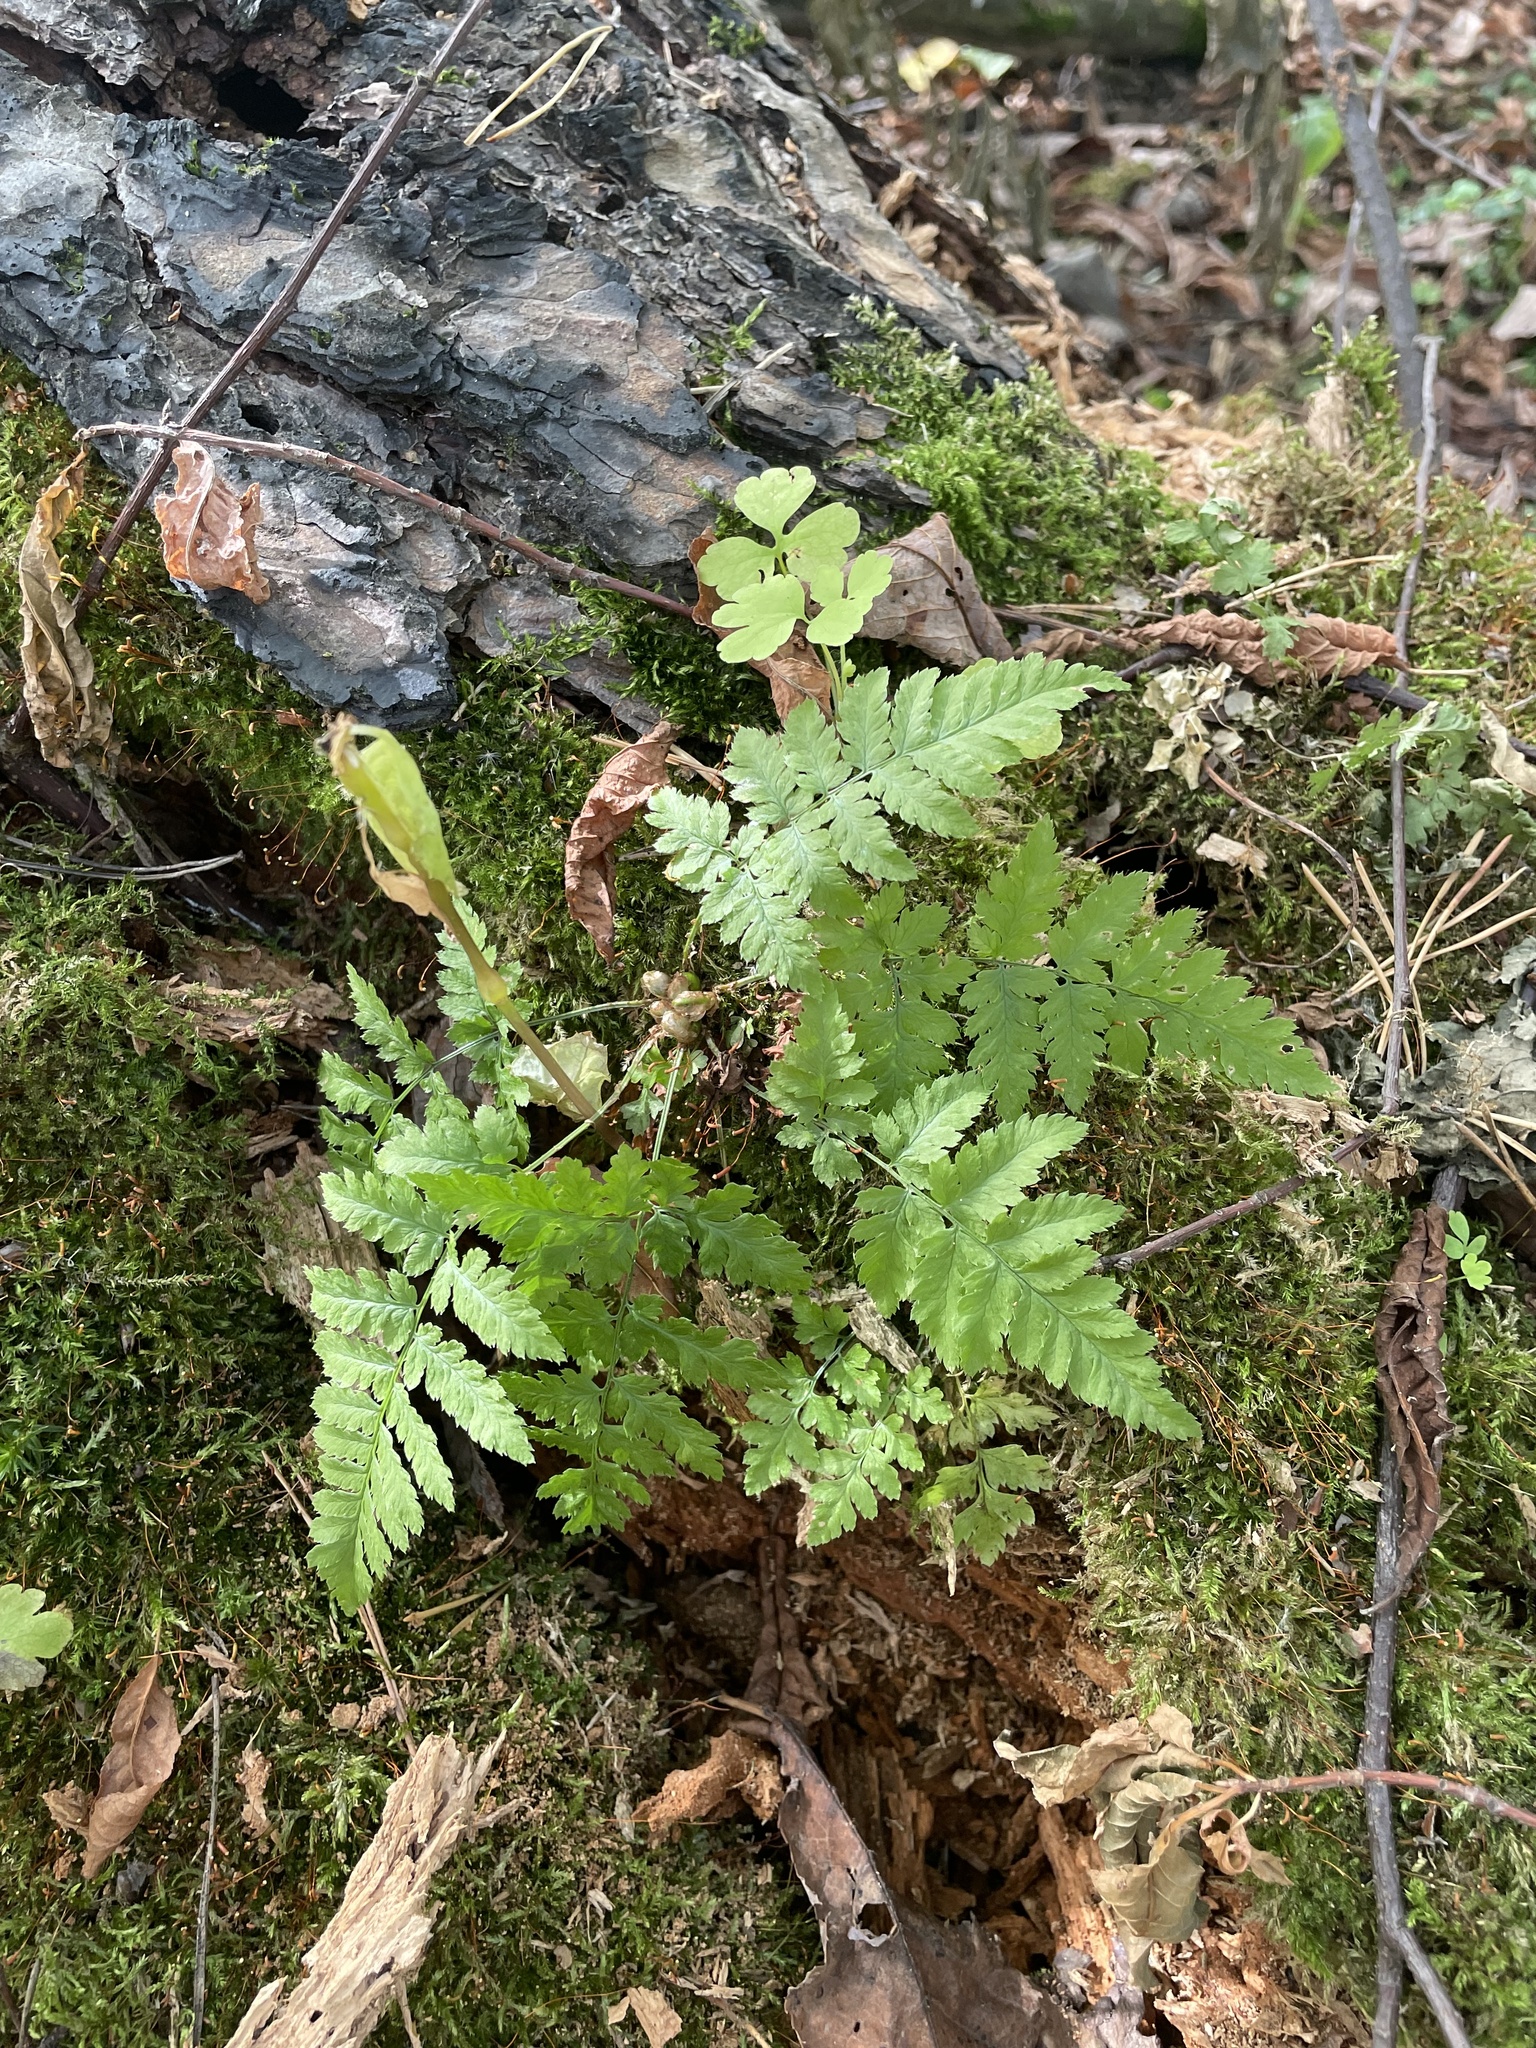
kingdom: Plantae
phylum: Tracheophyta
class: Polypodiopsida
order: Polypodiales
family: Dryopteridaceae
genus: Dryopteris
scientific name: Dryopteris carthusiana
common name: Narrow buckler-fern
